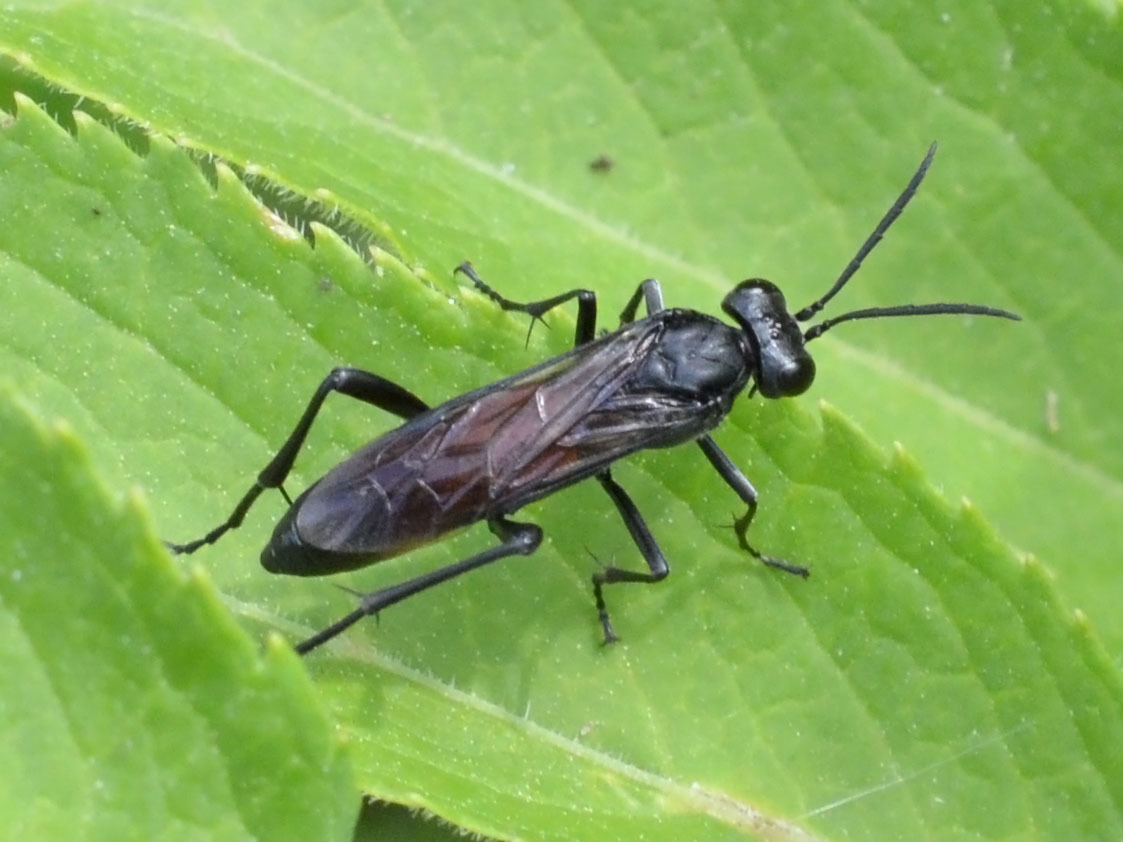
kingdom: Animalia
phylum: Arthropoda
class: Insecta
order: Hymenoptera
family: Tenthredinidae
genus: Macrophya
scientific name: Macrophya annulata
